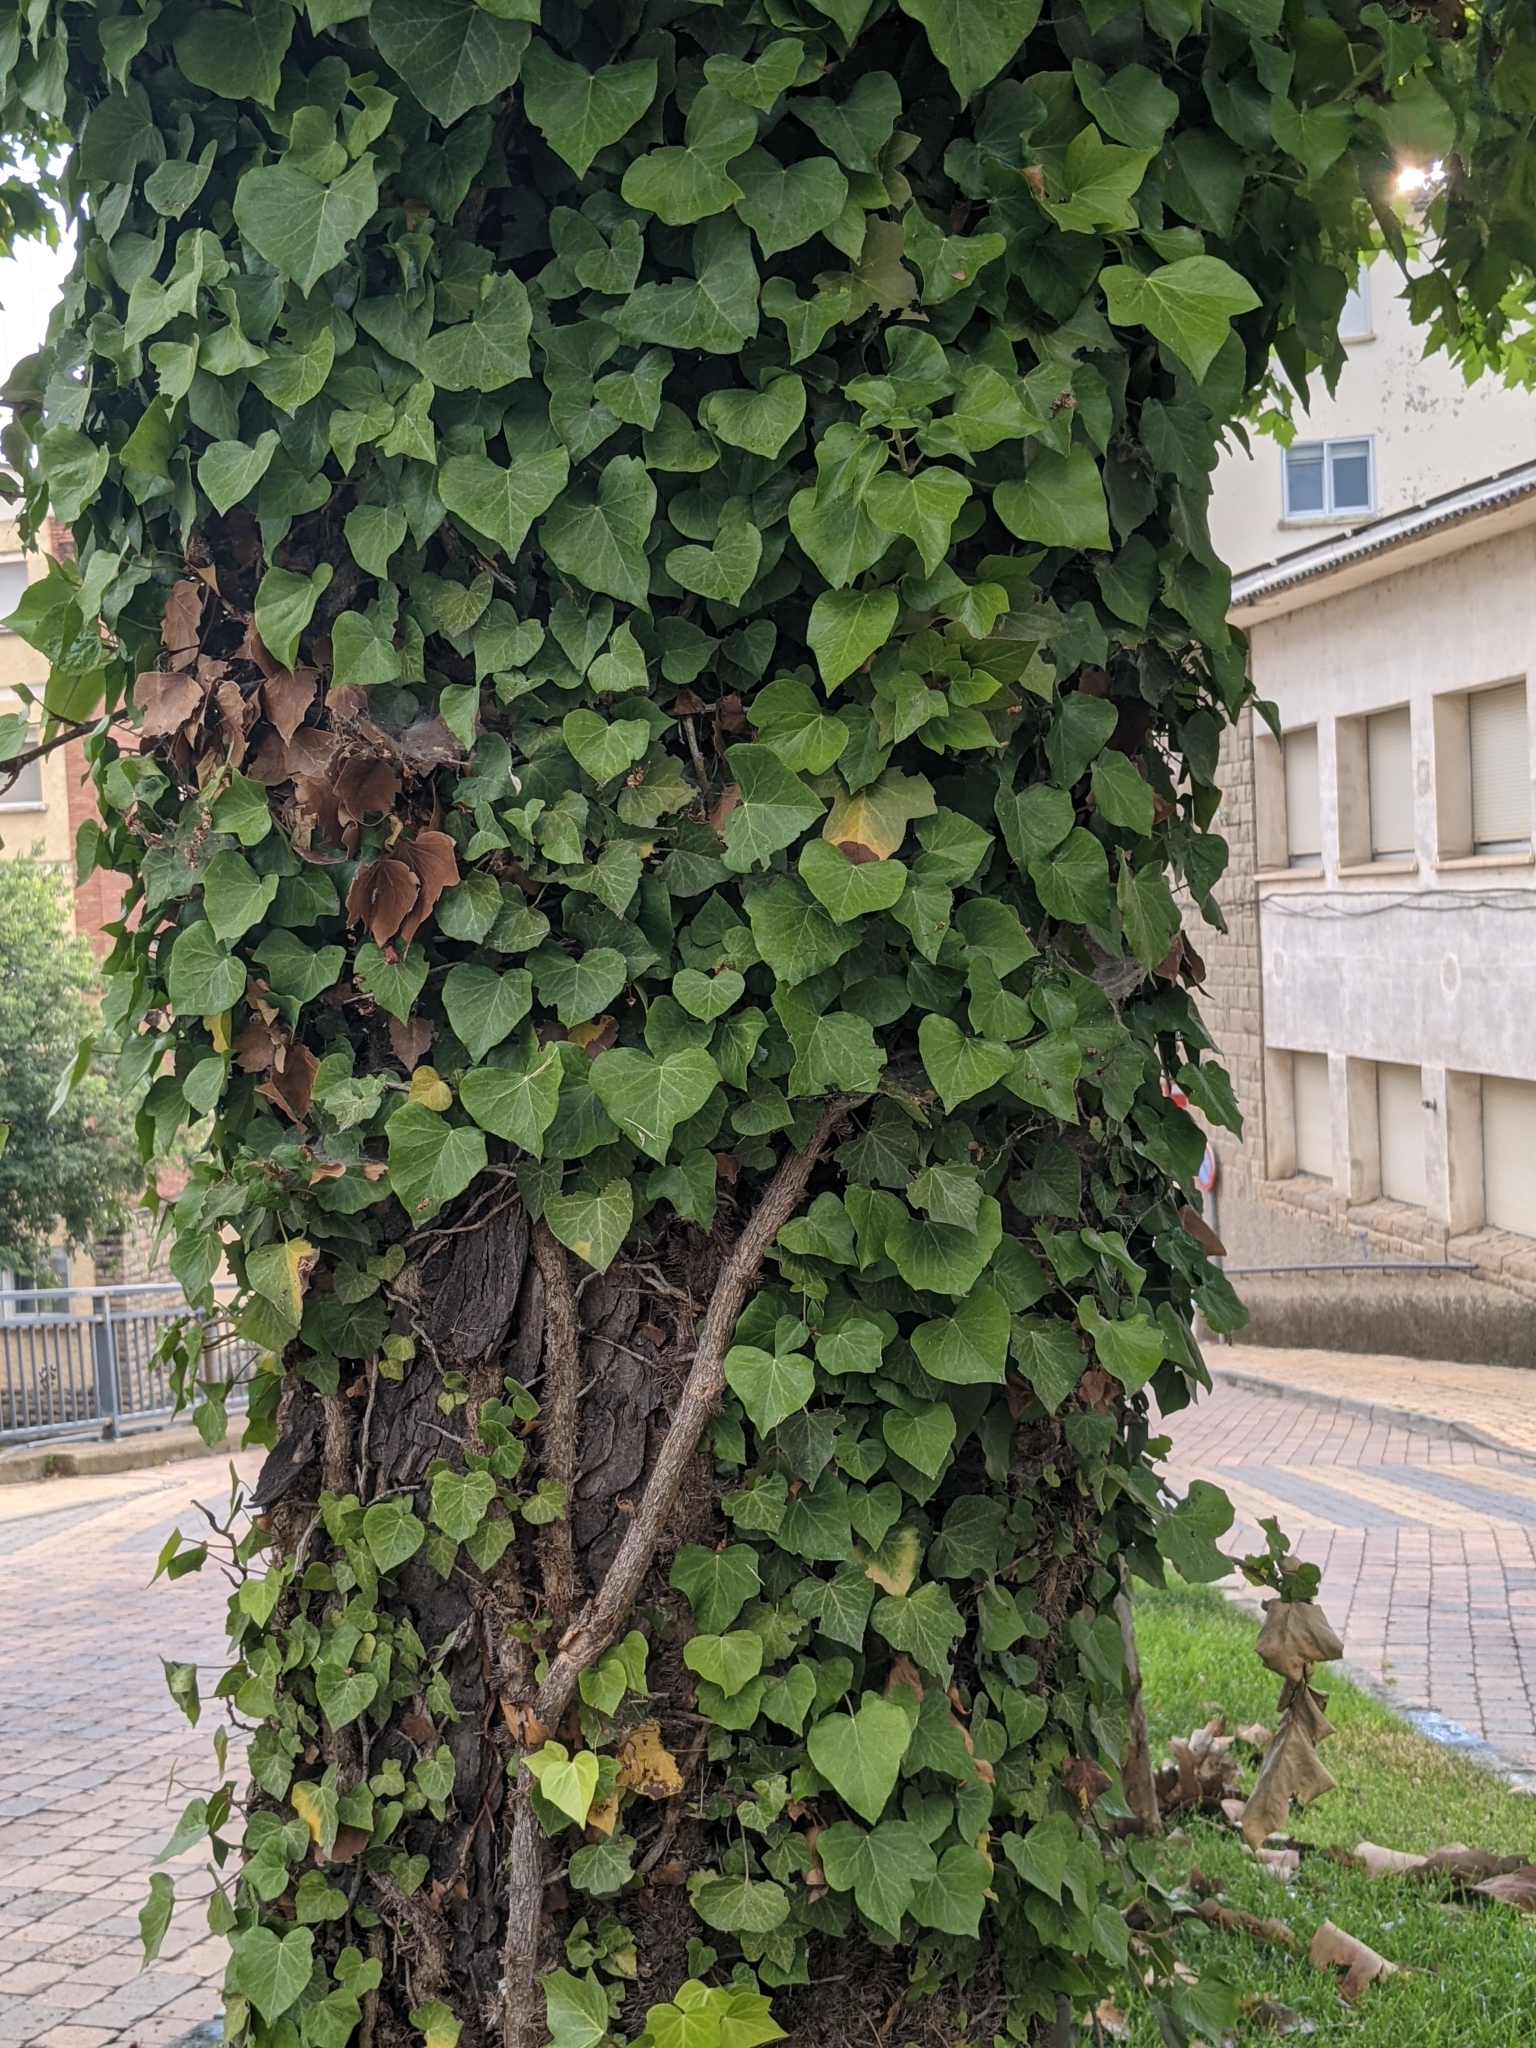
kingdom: Plantae
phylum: Tracheophyta
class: Magnoliopsida
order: Apiales
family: Araliaceae
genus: Hedera
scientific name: Hedera helix
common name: Ivy
